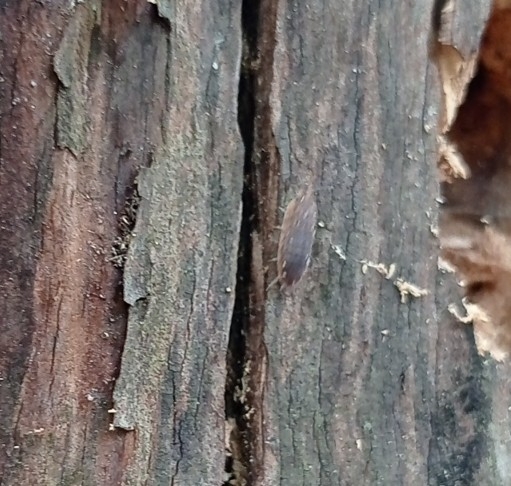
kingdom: Animalia
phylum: Arthropoda
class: Malacostraca
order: Isopoda
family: Porcellionidae
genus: Porcellio
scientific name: Porcellio scaber
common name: Common rough woodlouse
